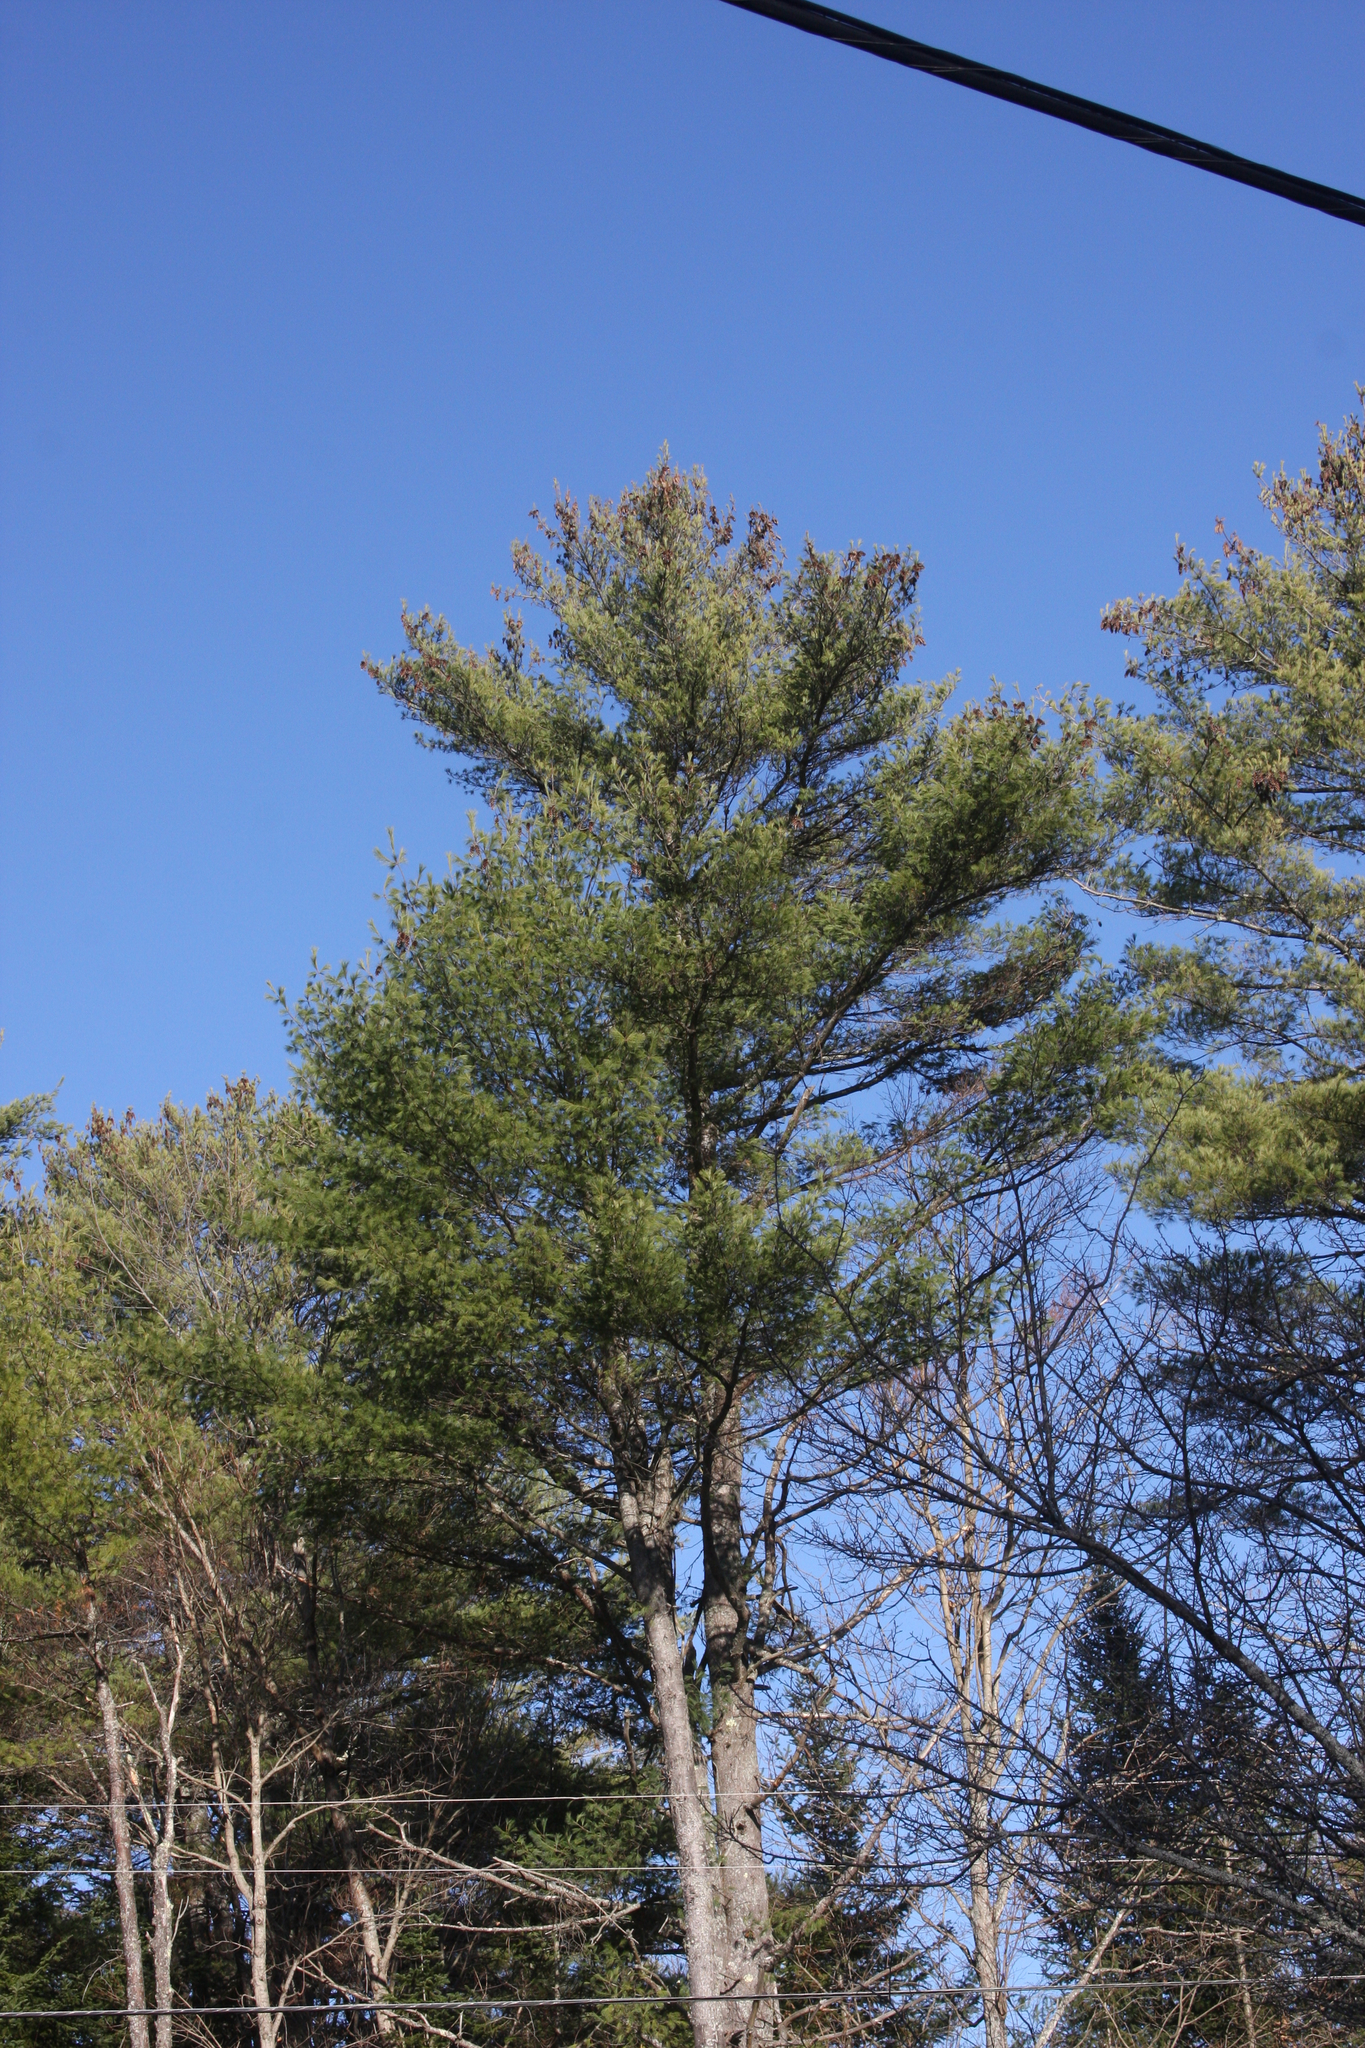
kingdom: Plantae
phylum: Tracheophyta
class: Pinopsida
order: Pinales
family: Pinaceae
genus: Pinus
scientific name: Pinus strobus
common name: Weymouth pine
